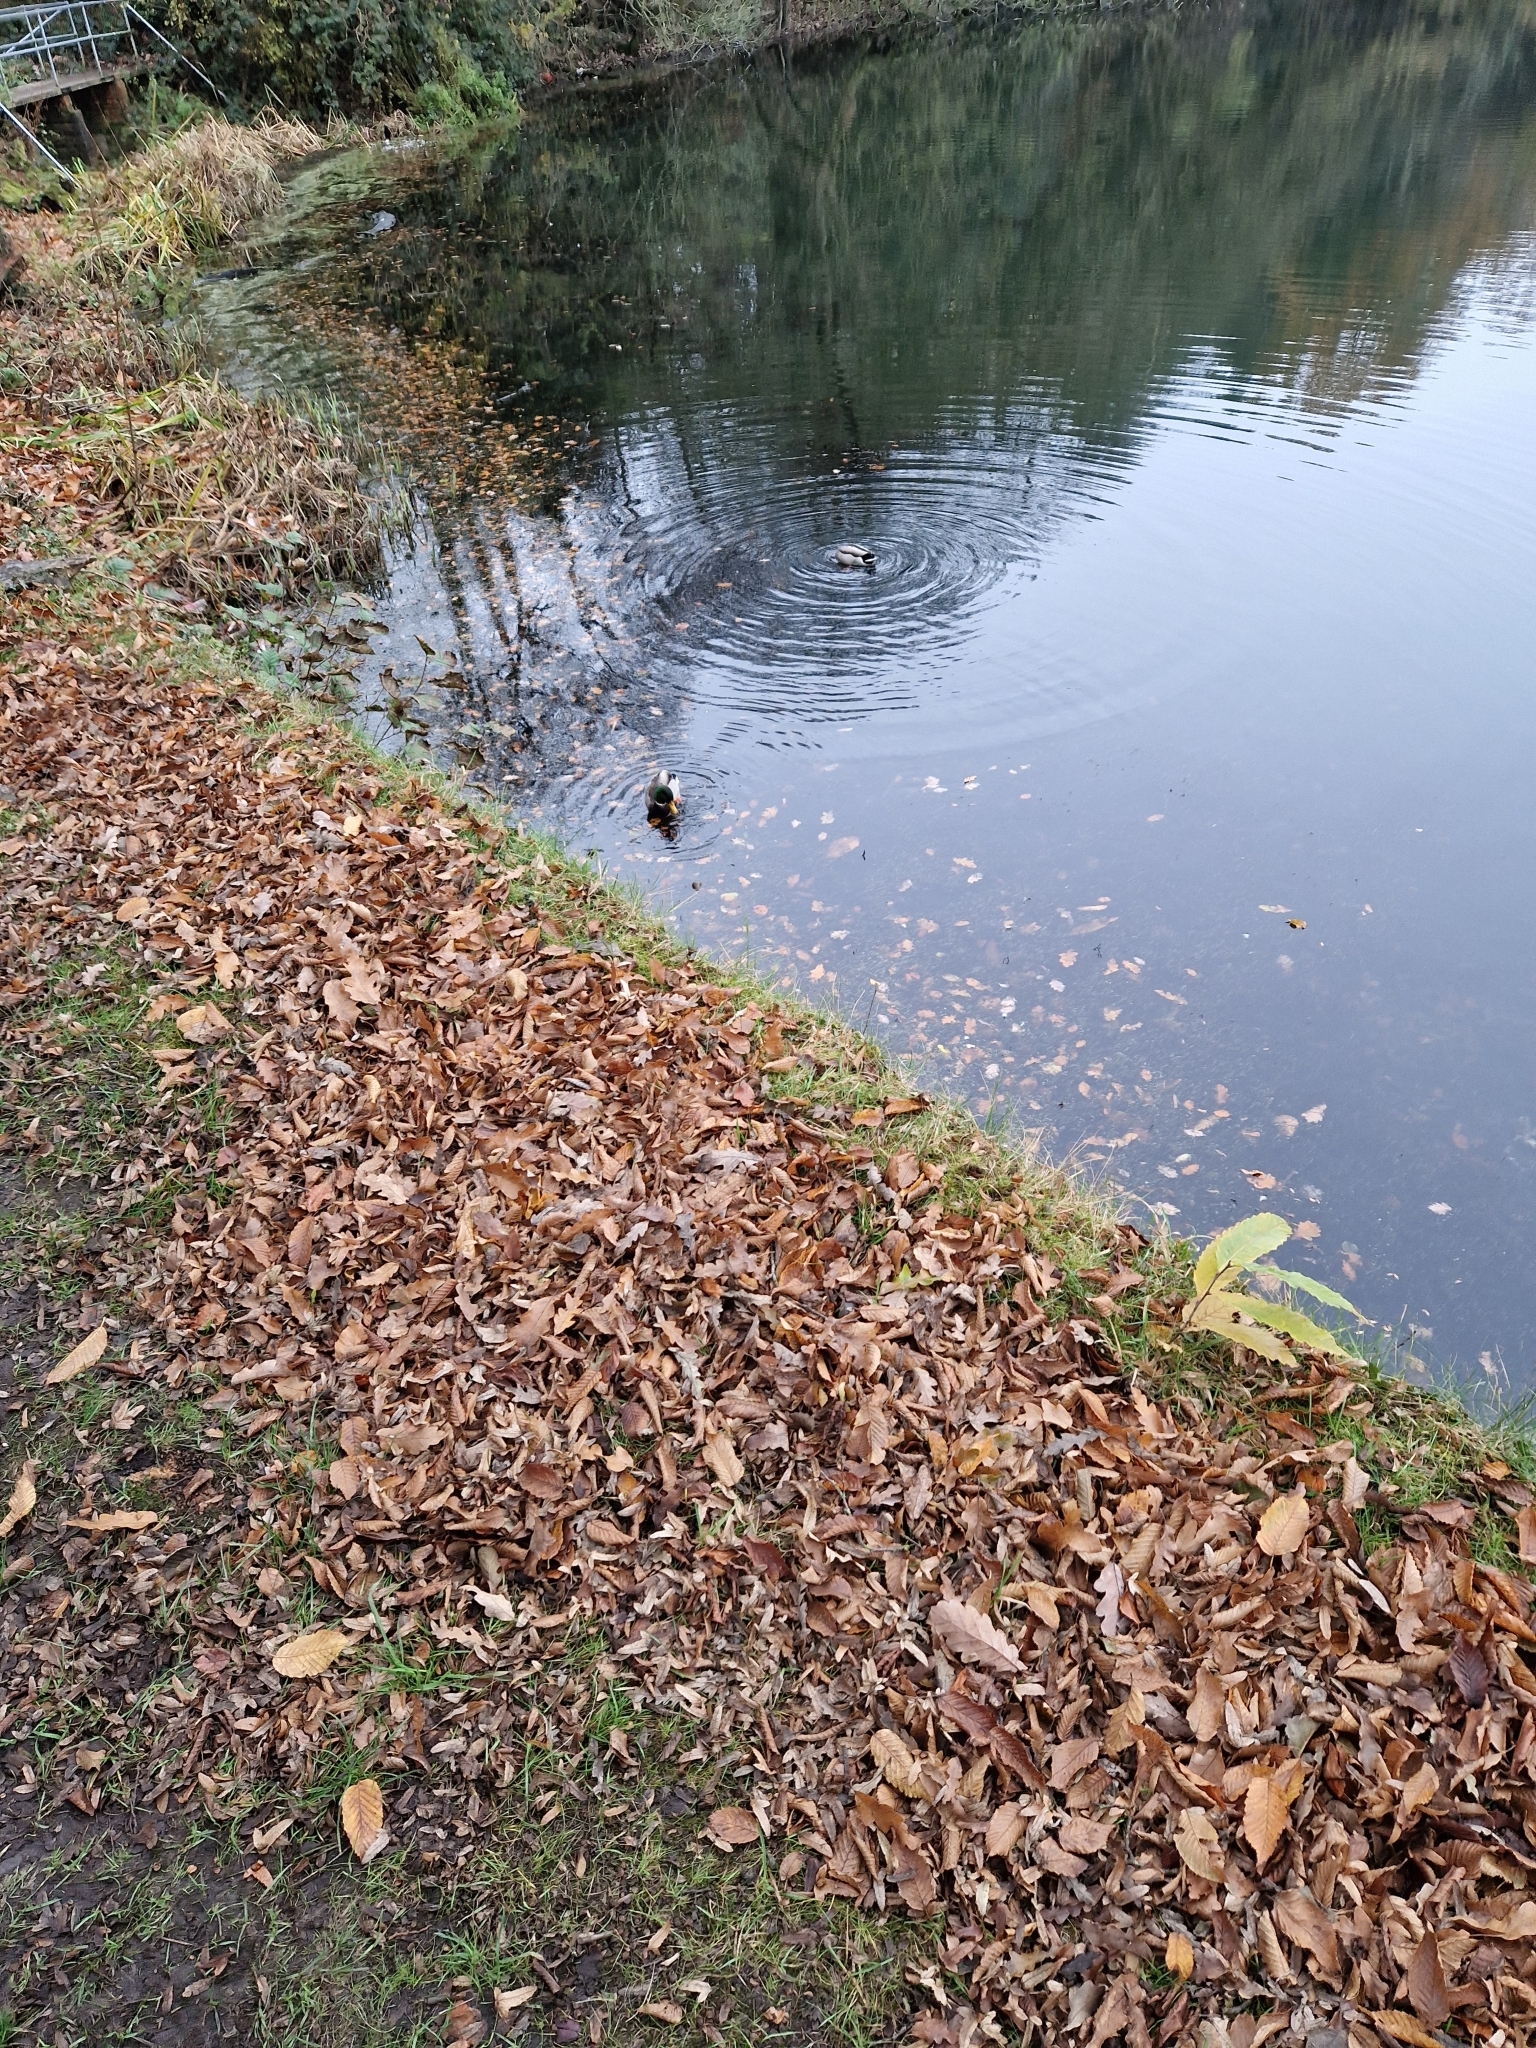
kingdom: Animalia
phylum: Chordata
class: Aves
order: Anseriformes
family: Anatidae
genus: Anas
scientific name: Anas platyrhynchos
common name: Mallard
